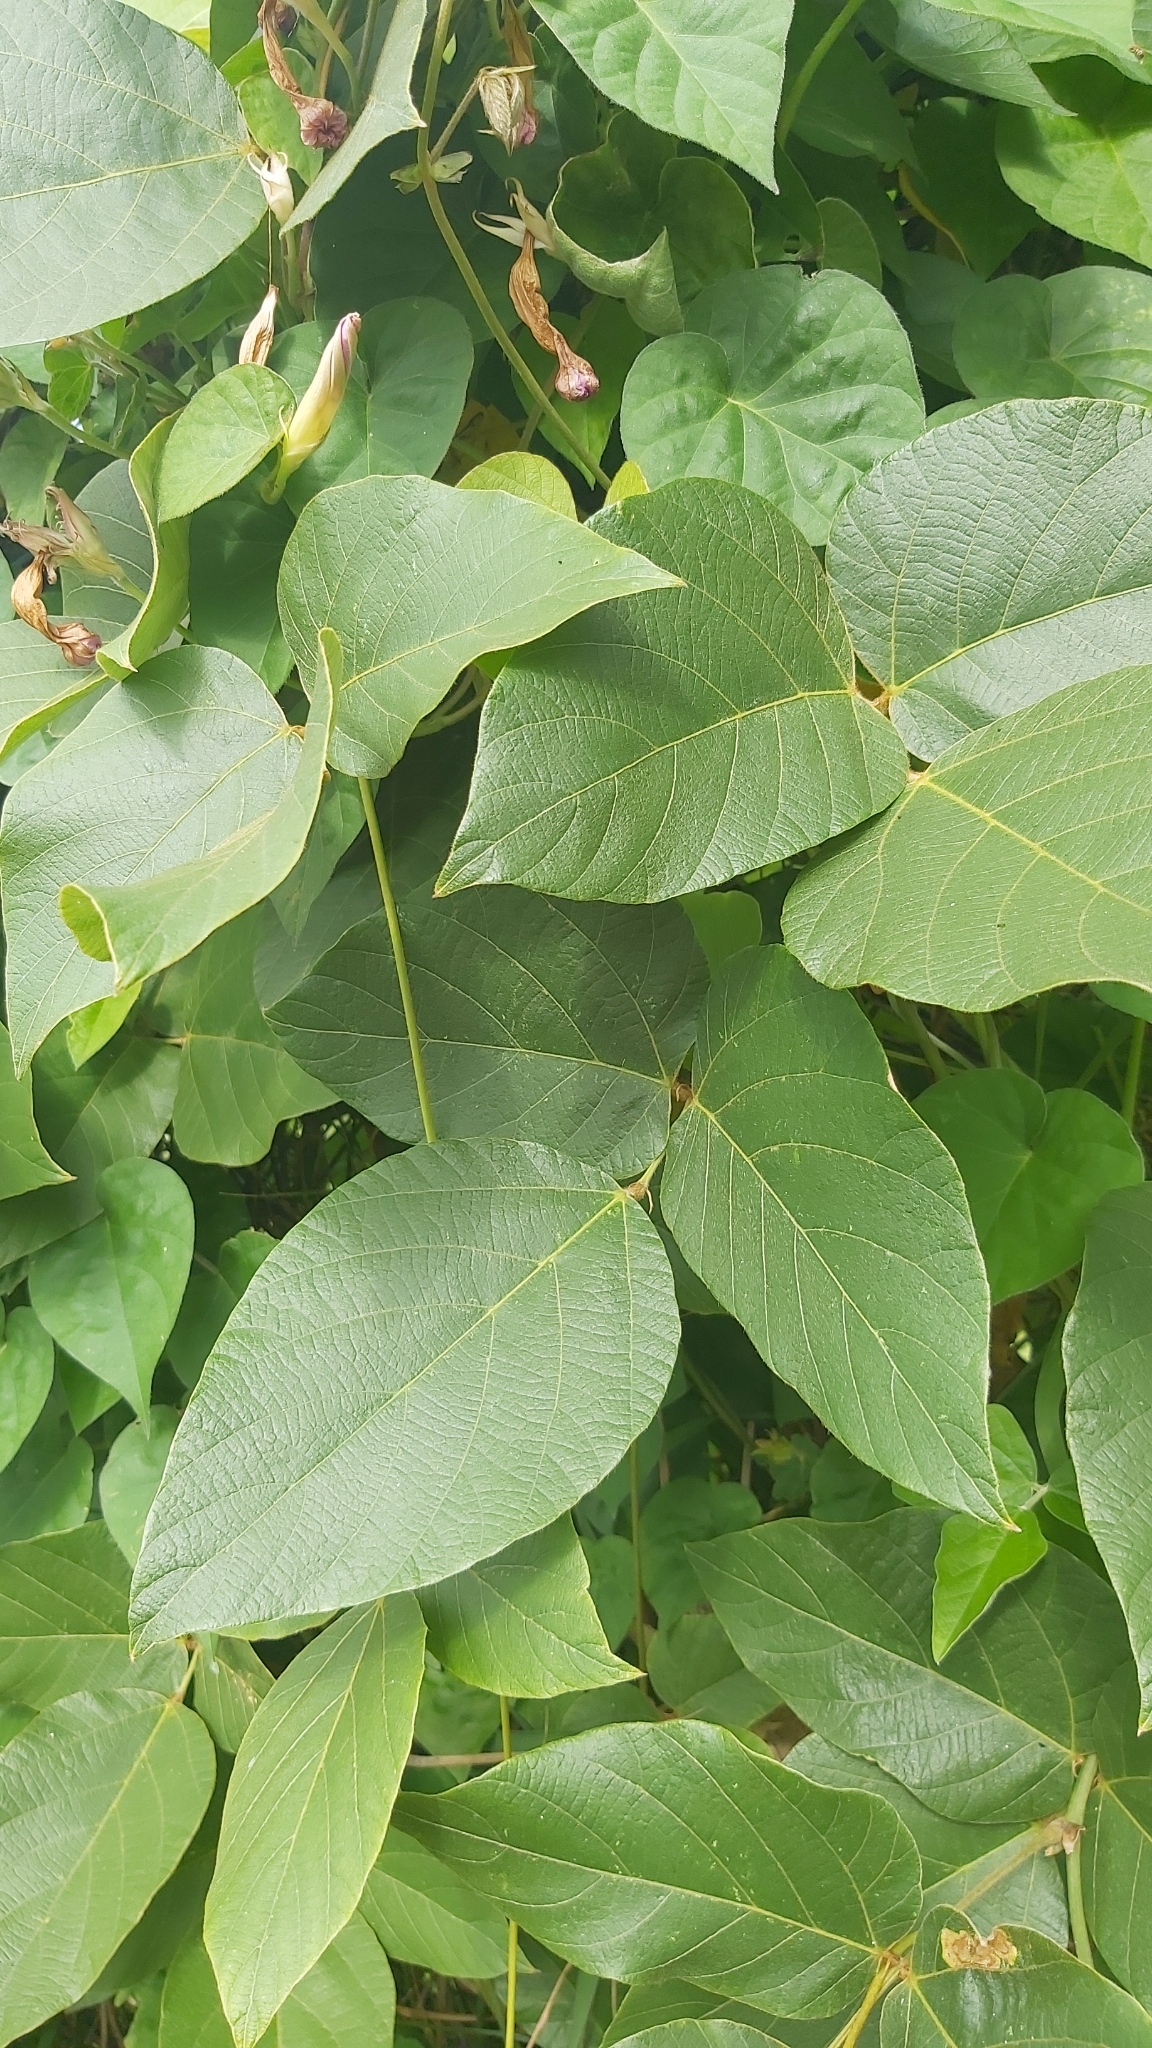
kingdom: Plantae
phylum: Tracheophyta
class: Magnoliopsida
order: Fabales
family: Fabaceae
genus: Pueraria
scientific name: Pueraria montana
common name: Kudzu
